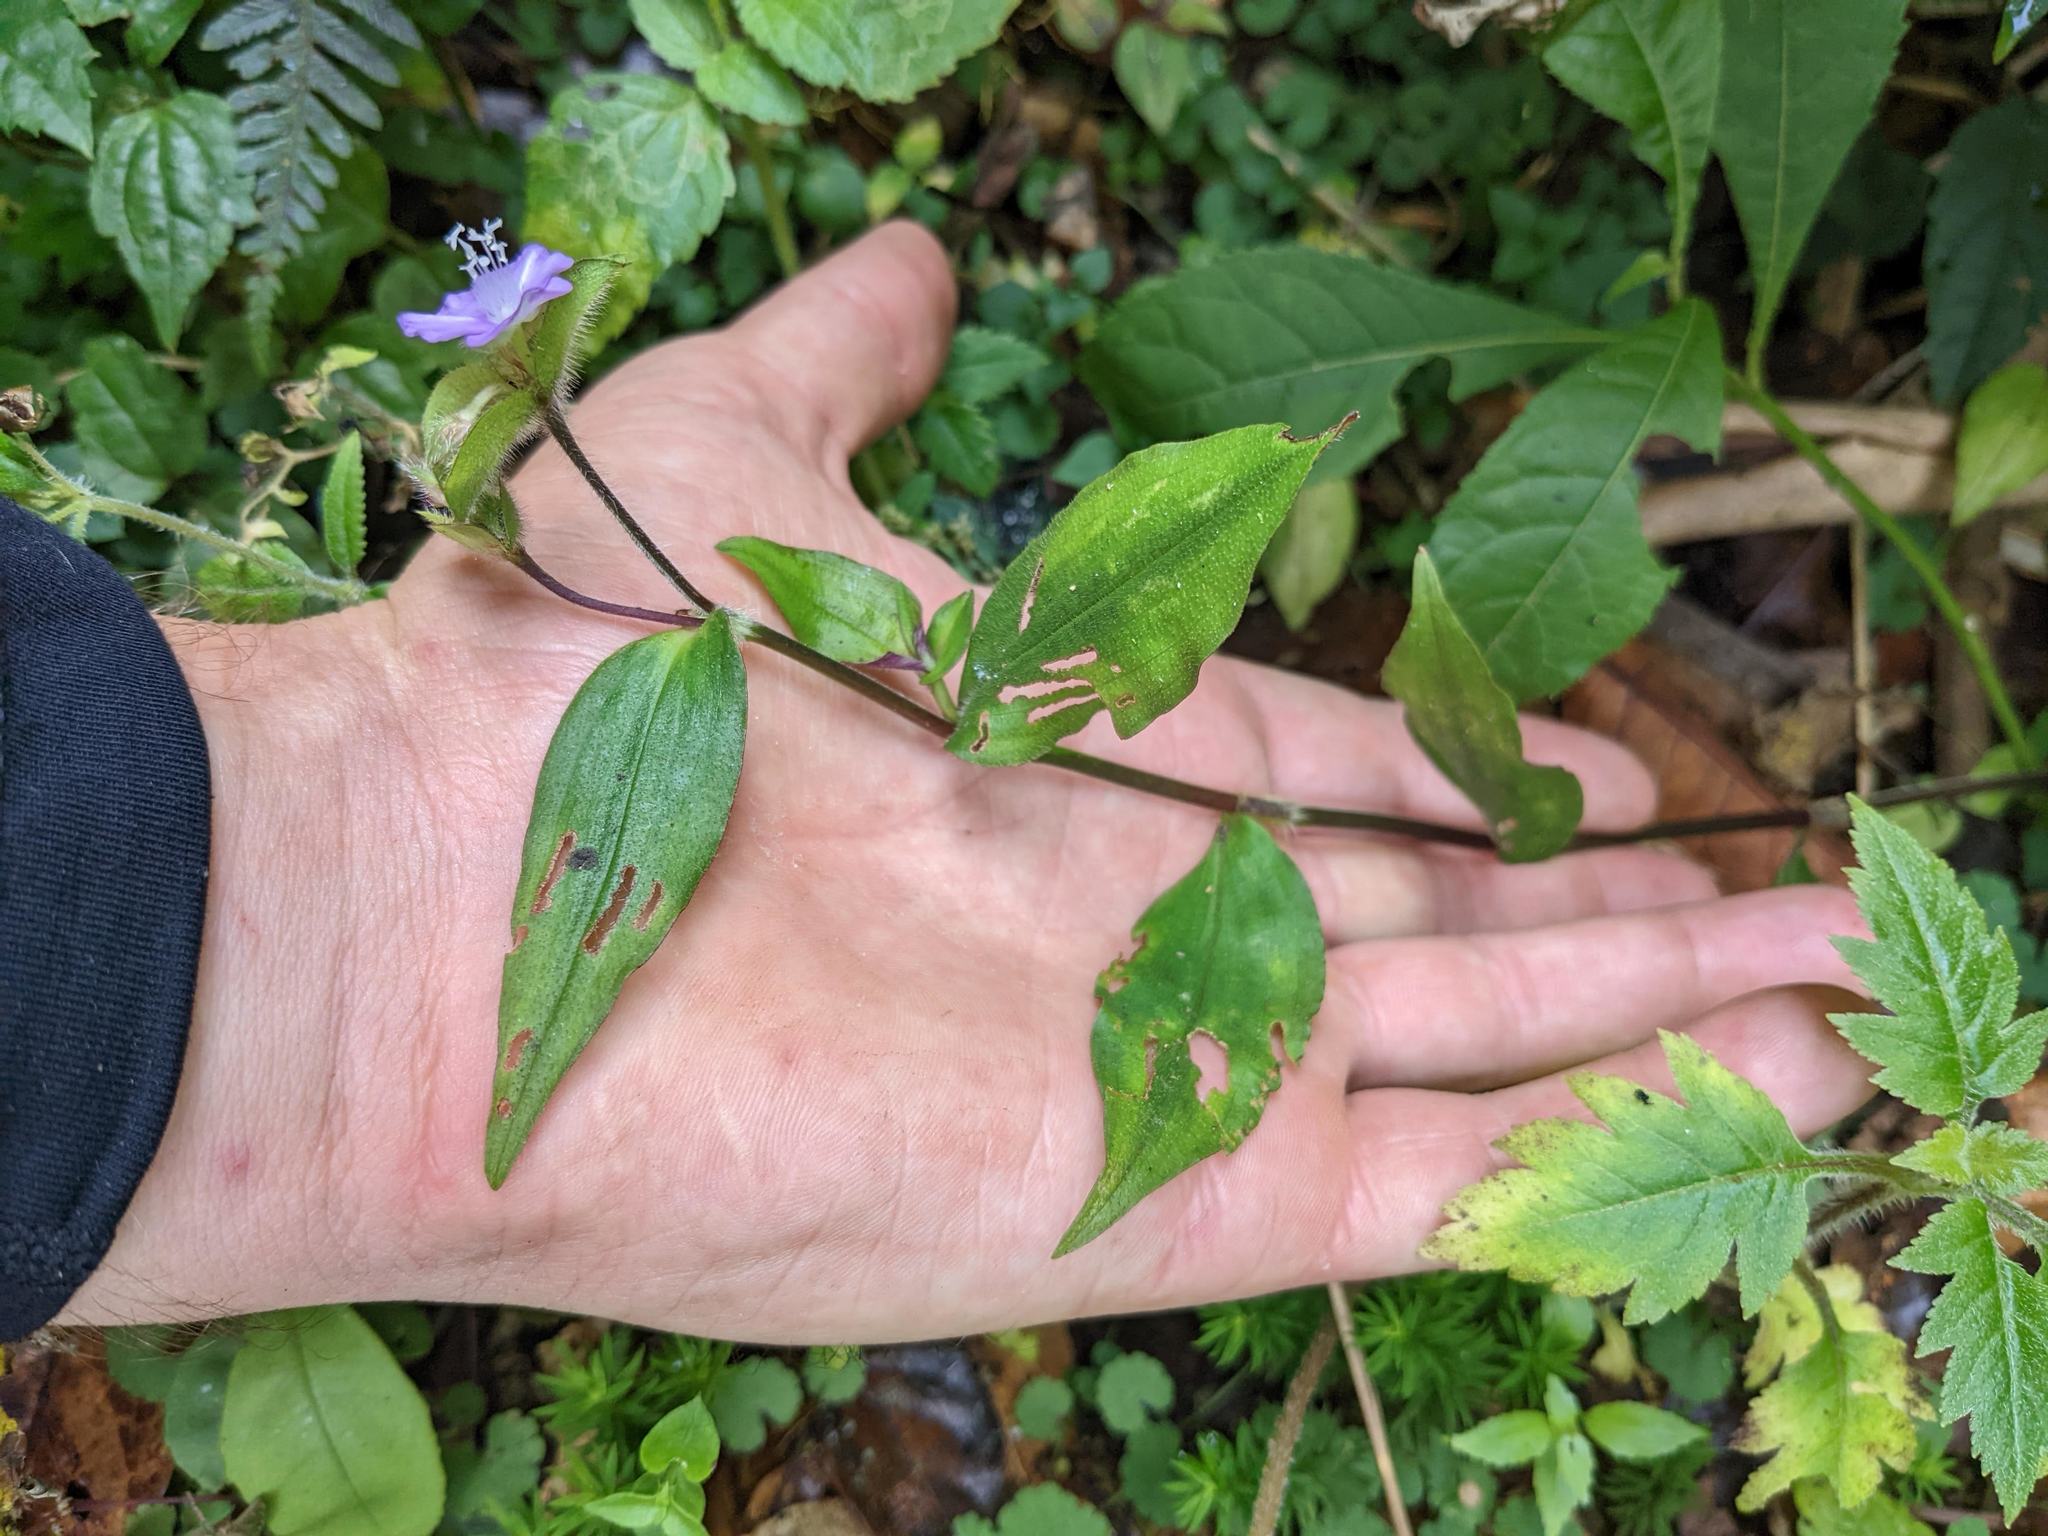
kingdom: Plantae
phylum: Tracheophyta
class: Liliopsida
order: Commelinales
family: Commelinaceae
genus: Tradescantia
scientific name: Tradescantia poelliae
